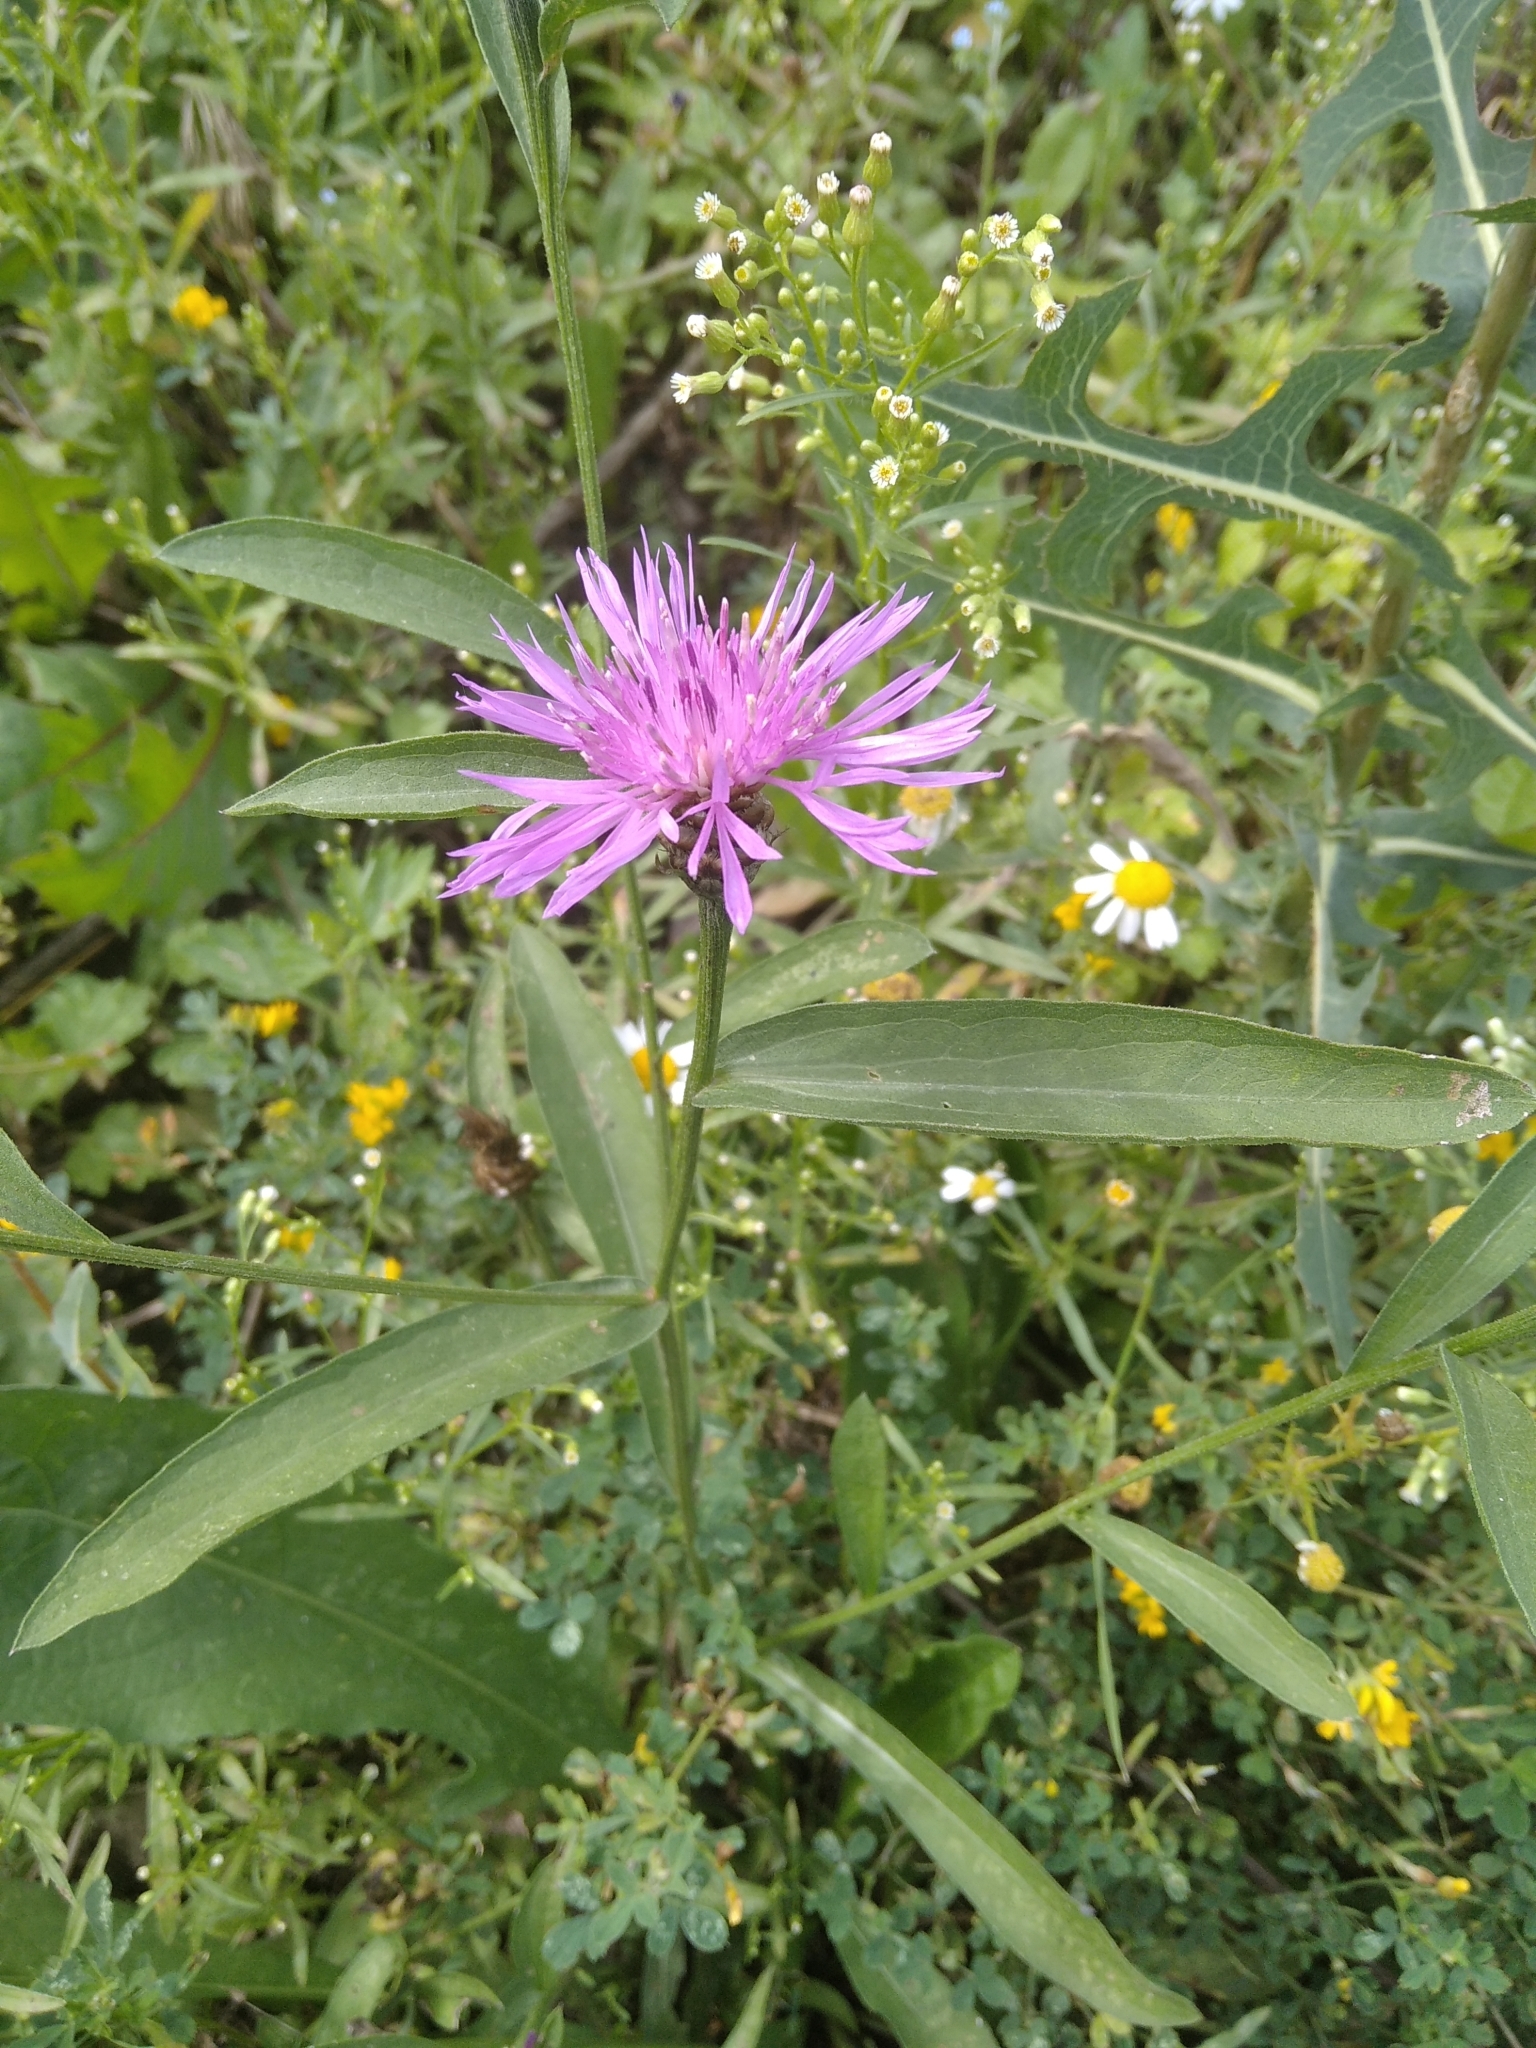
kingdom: Plantae
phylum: Tracheophyta
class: Magnoliopsida
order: Asterales
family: Asteraceae
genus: Centaurea
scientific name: Centaurea jacea
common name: Brown knapweed
